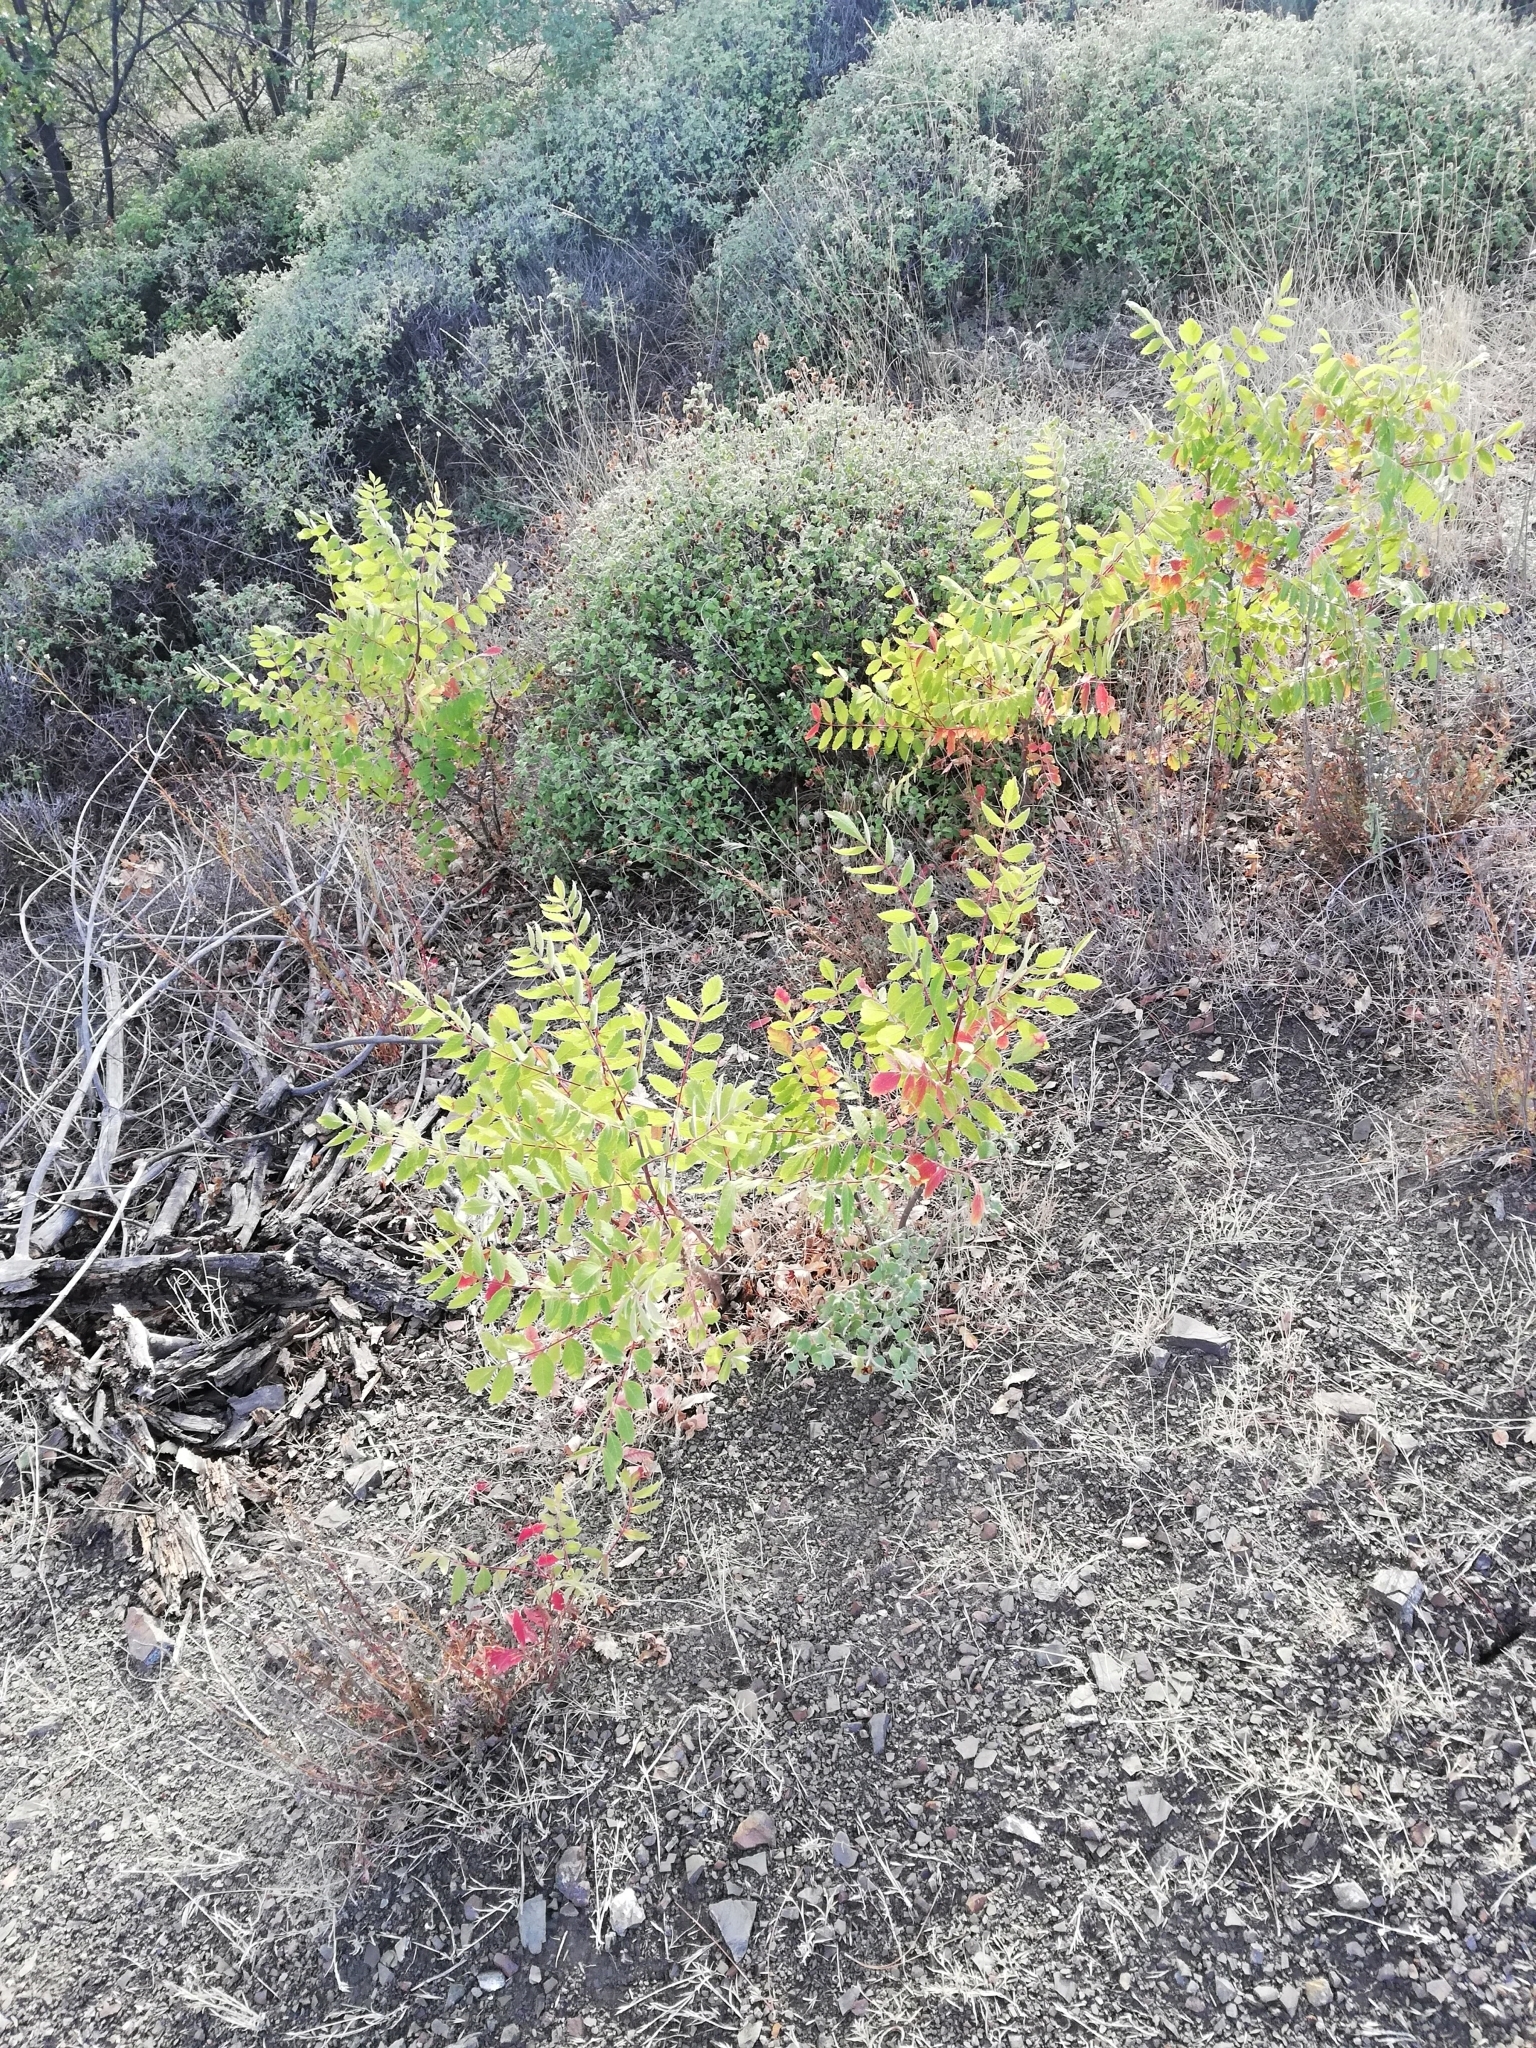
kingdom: Plantae
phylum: Tracheophyta
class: Magnoliopsida
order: Sapindales
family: Anacardiaceae
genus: Rhus
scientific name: Rhus coriaria
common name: Tanner's sumach
